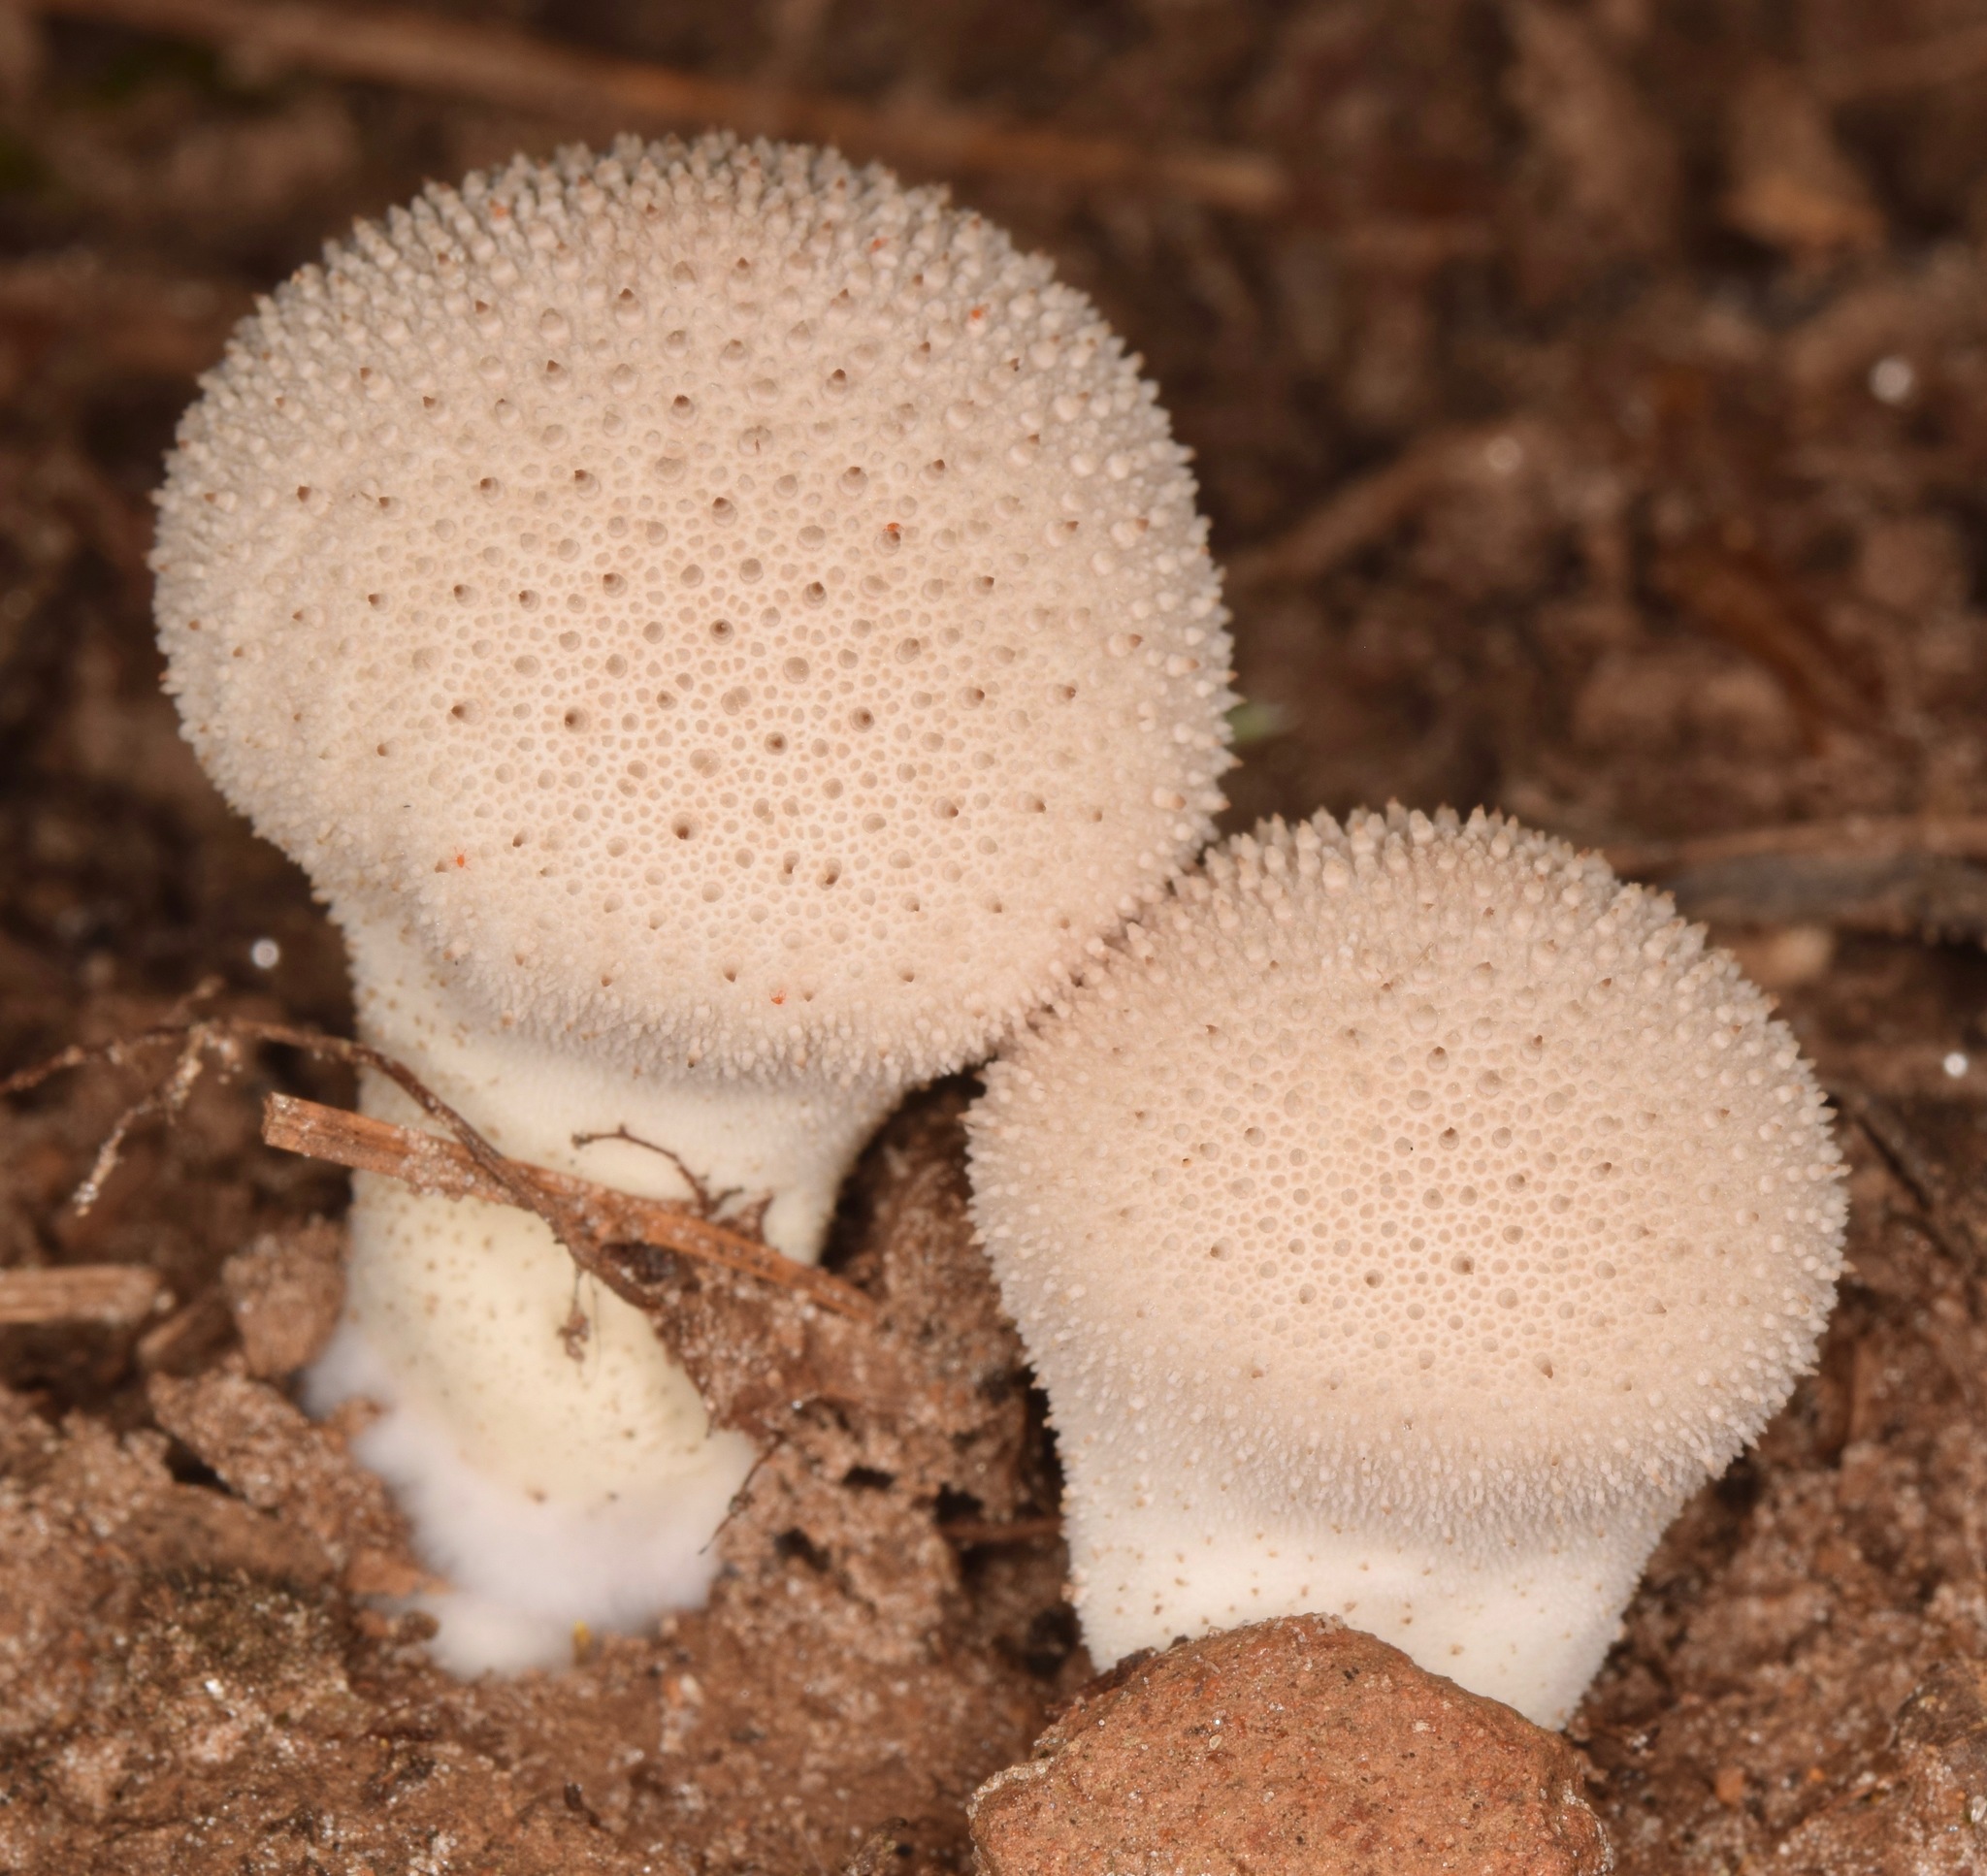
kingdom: Fungi
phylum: Basidiomycota
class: Agaricomycetes
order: Agaricales
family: Lycoperdaceae
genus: Lycoperdon
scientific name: Lycoperdon perlatum
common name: Common puffball
